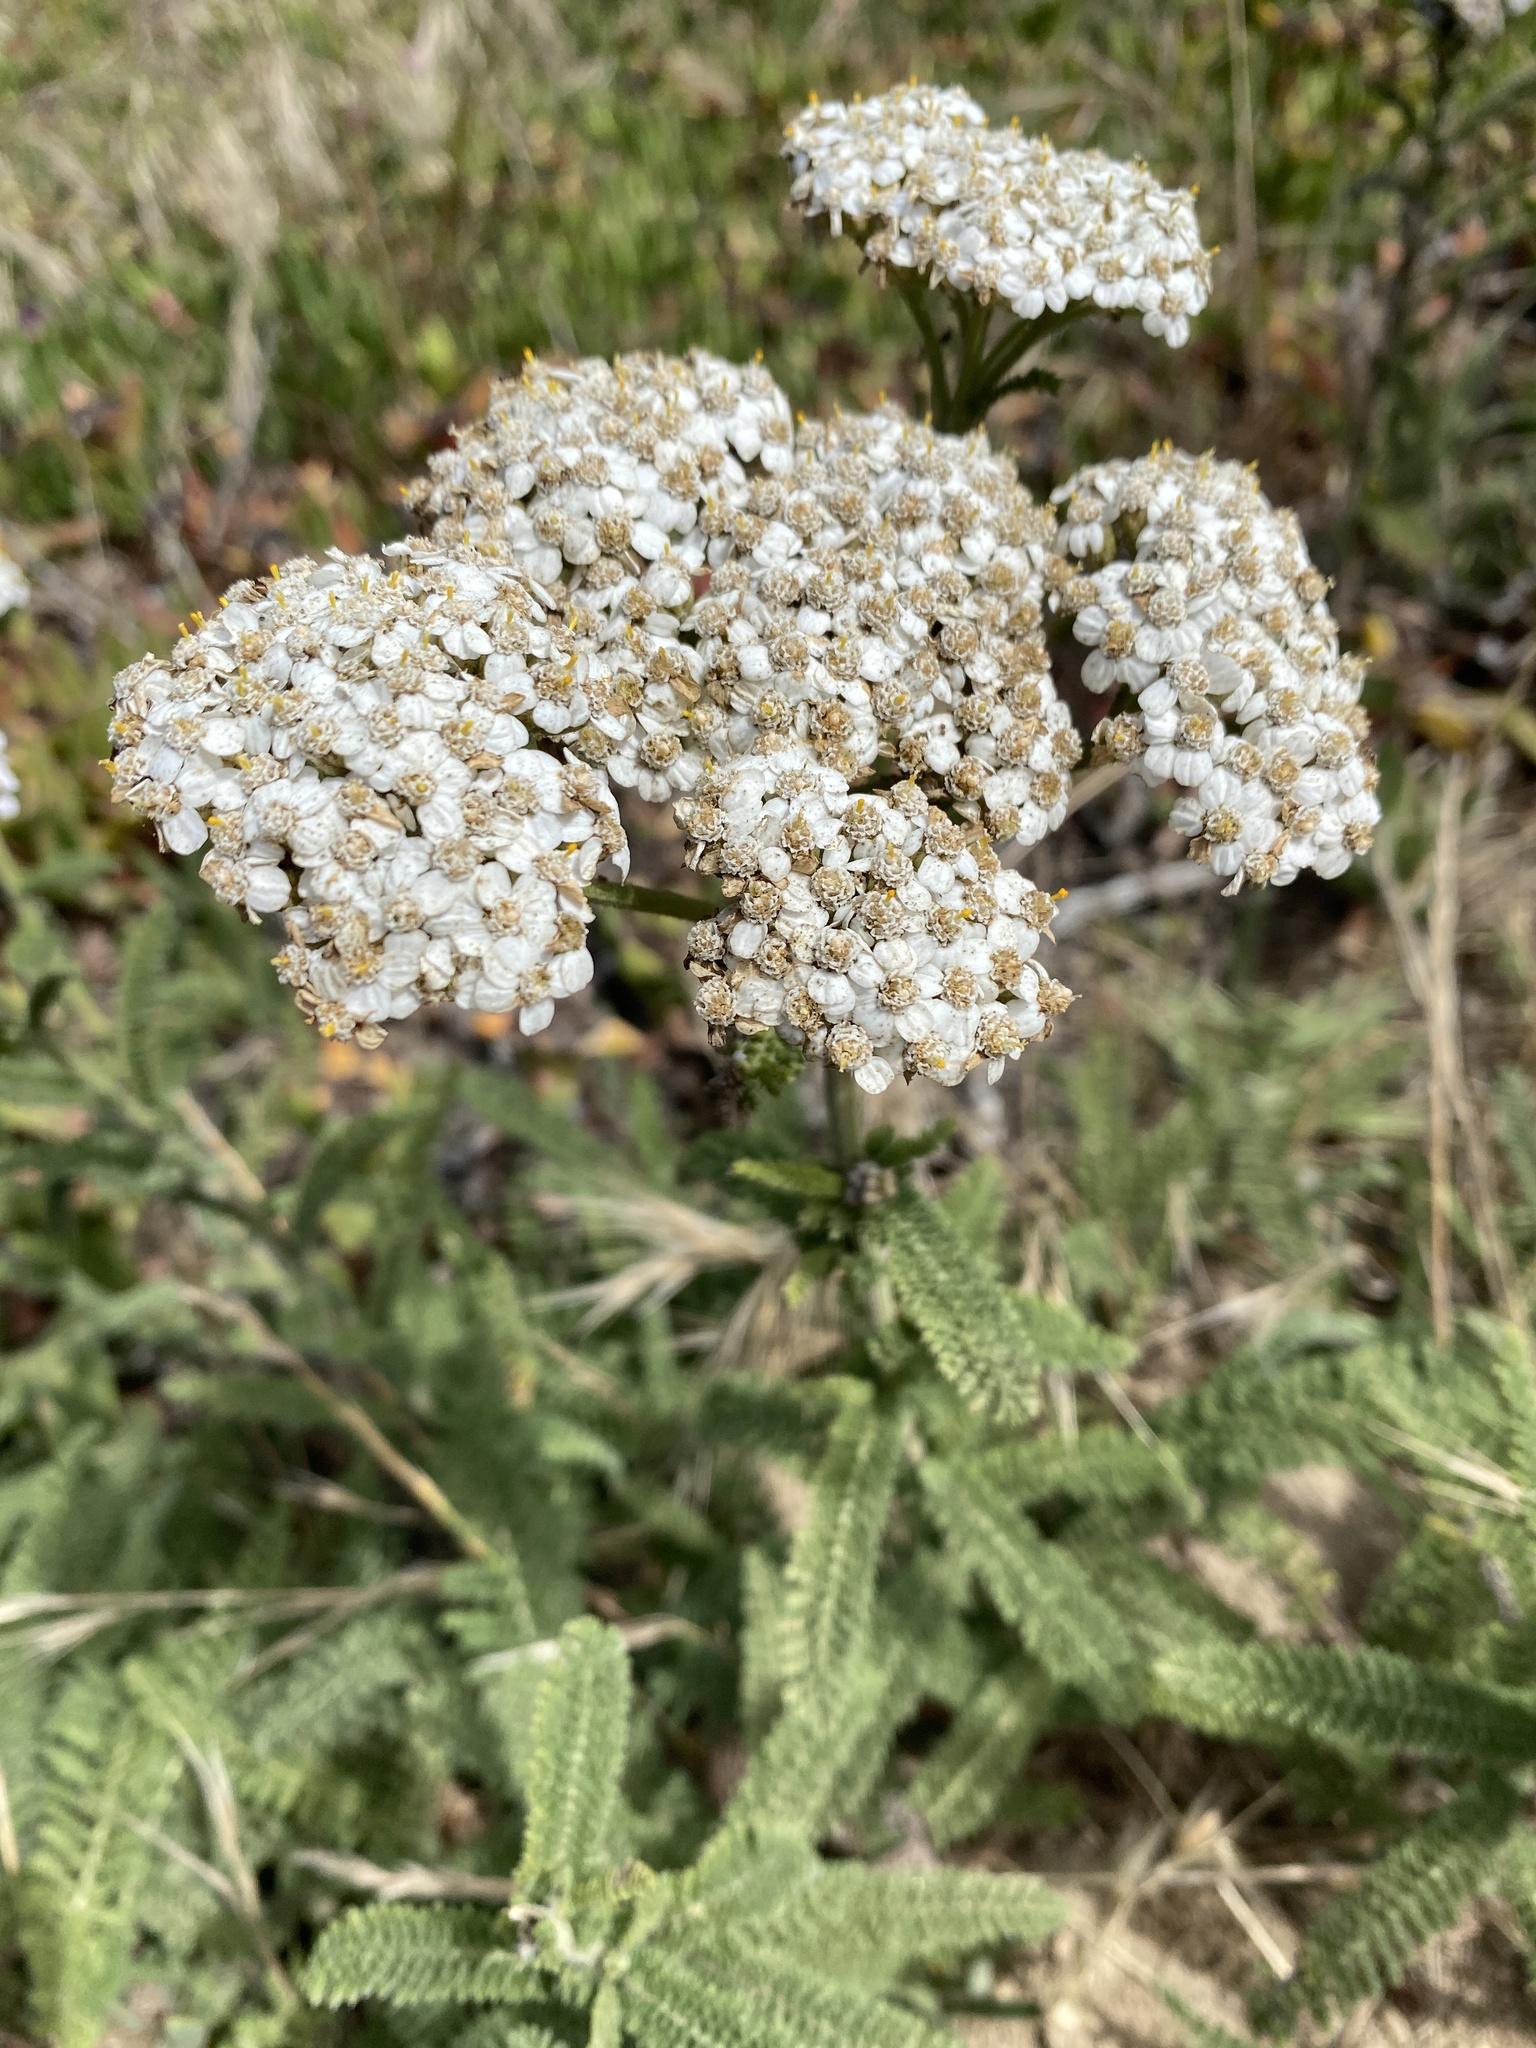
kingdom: Plantae
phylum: Tracheophyta
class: Magnoliopsida
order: Asterales
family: Asteraceae
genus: Achillea
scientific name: Achillea millefolium
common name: Yarrow
